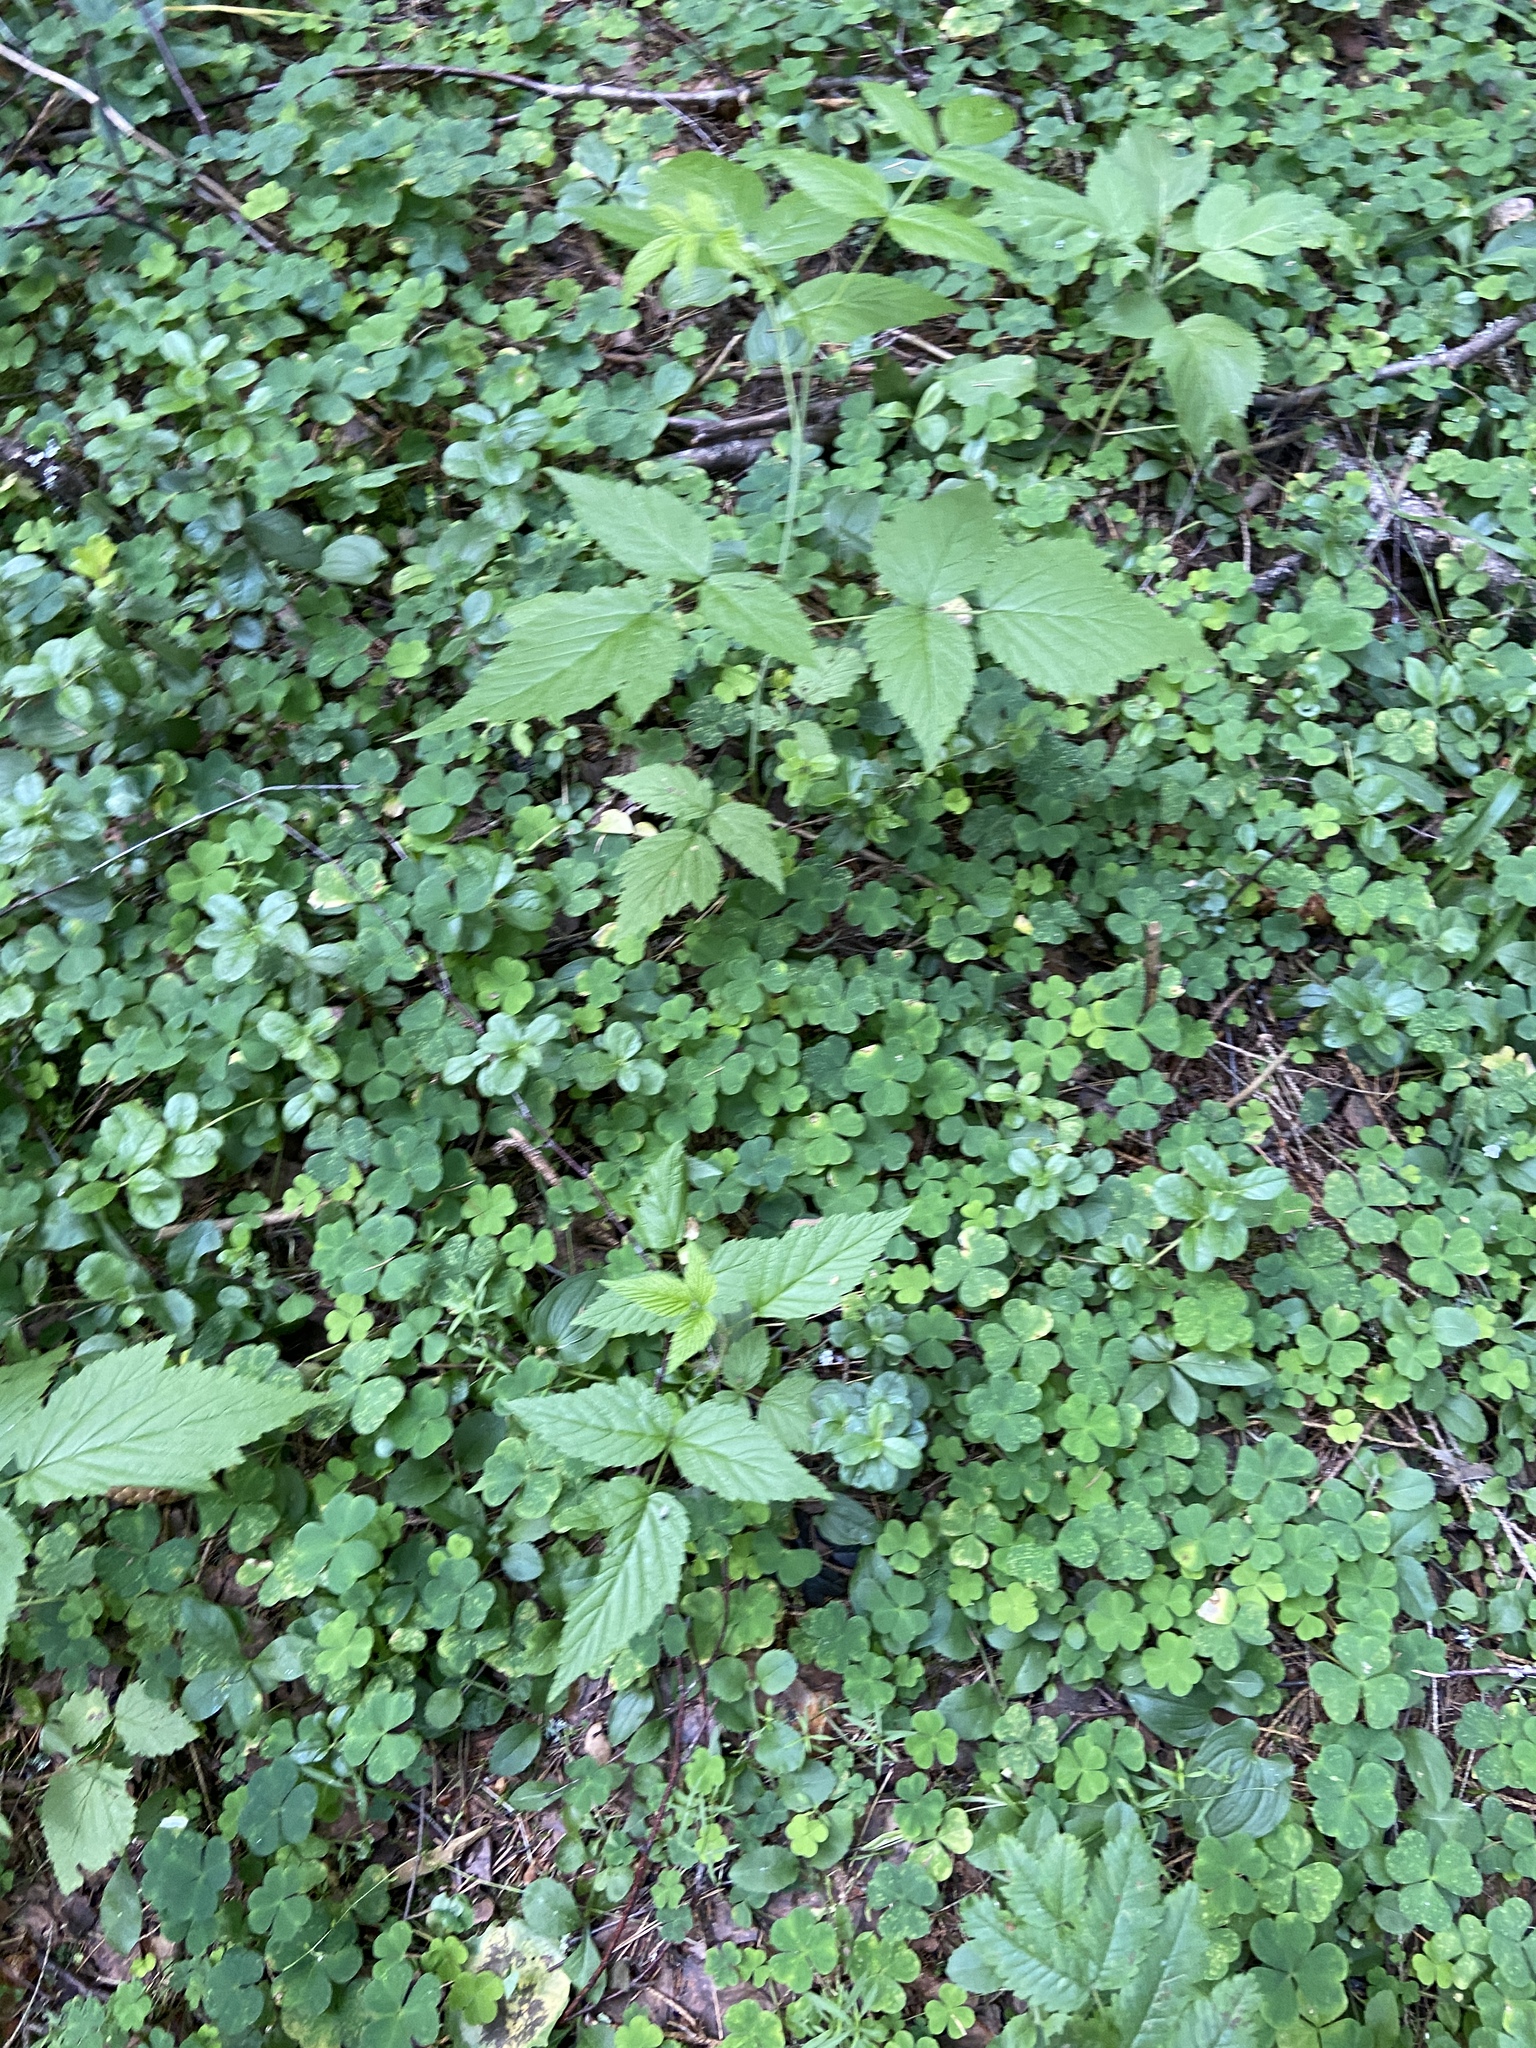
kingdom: Plantae
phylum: Tracheophyta
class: Magnoliopsida
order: Rosales
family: Rosaceae
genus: Rubus
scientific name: Rubus idaeus
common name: Raspberry
